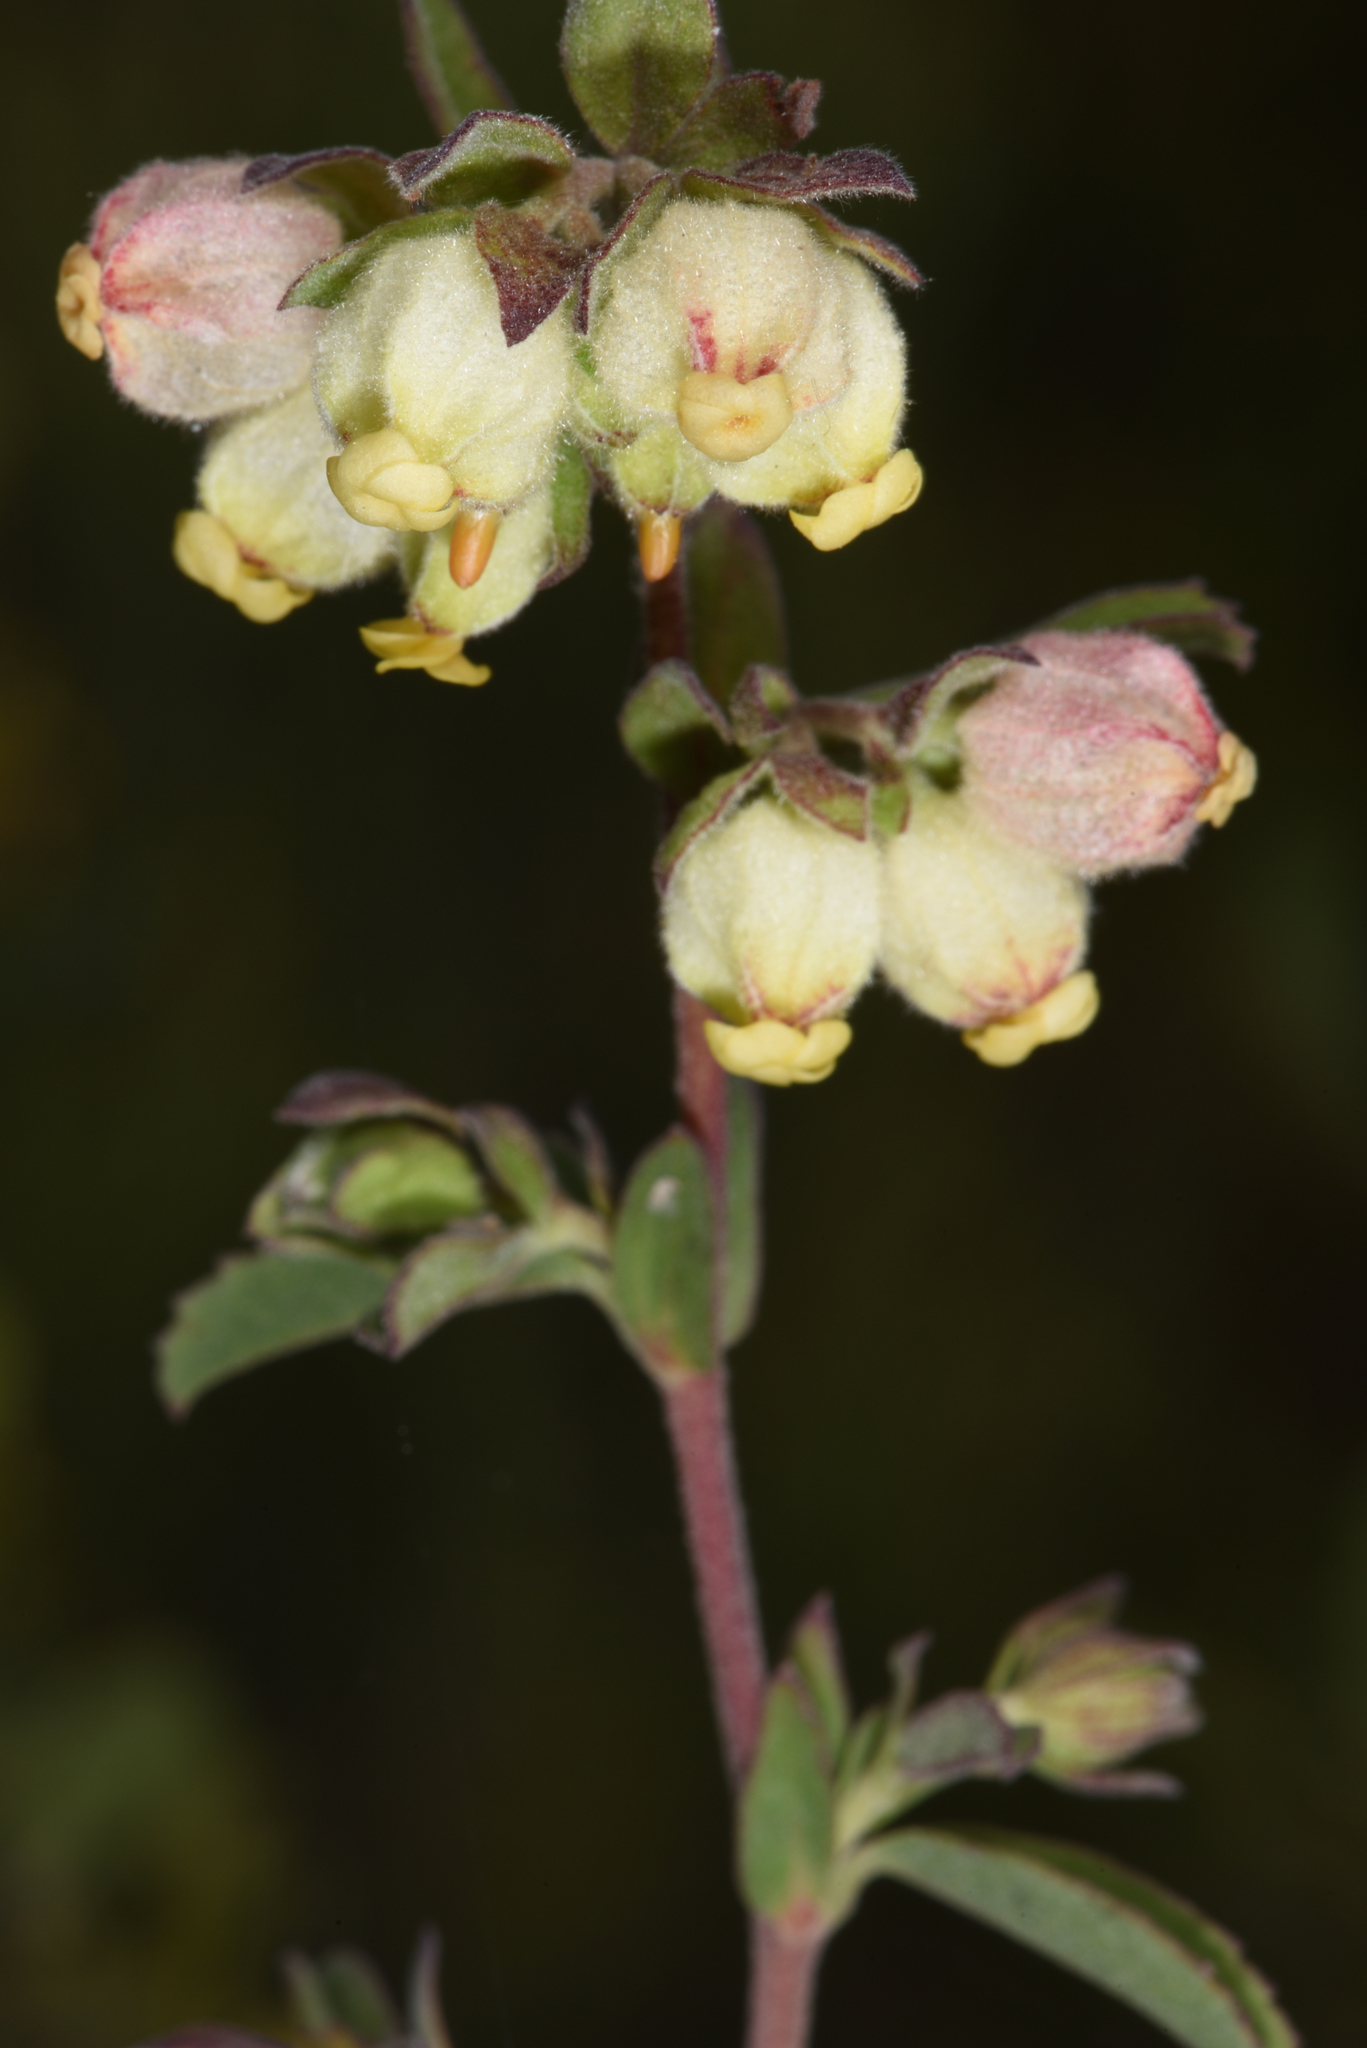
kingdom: Plantae
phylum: Tracheophyta
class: Magnoliopsida
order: Malvales
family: Malvaceae
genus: Hermannia
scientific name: Hermannia hyssopifolia
